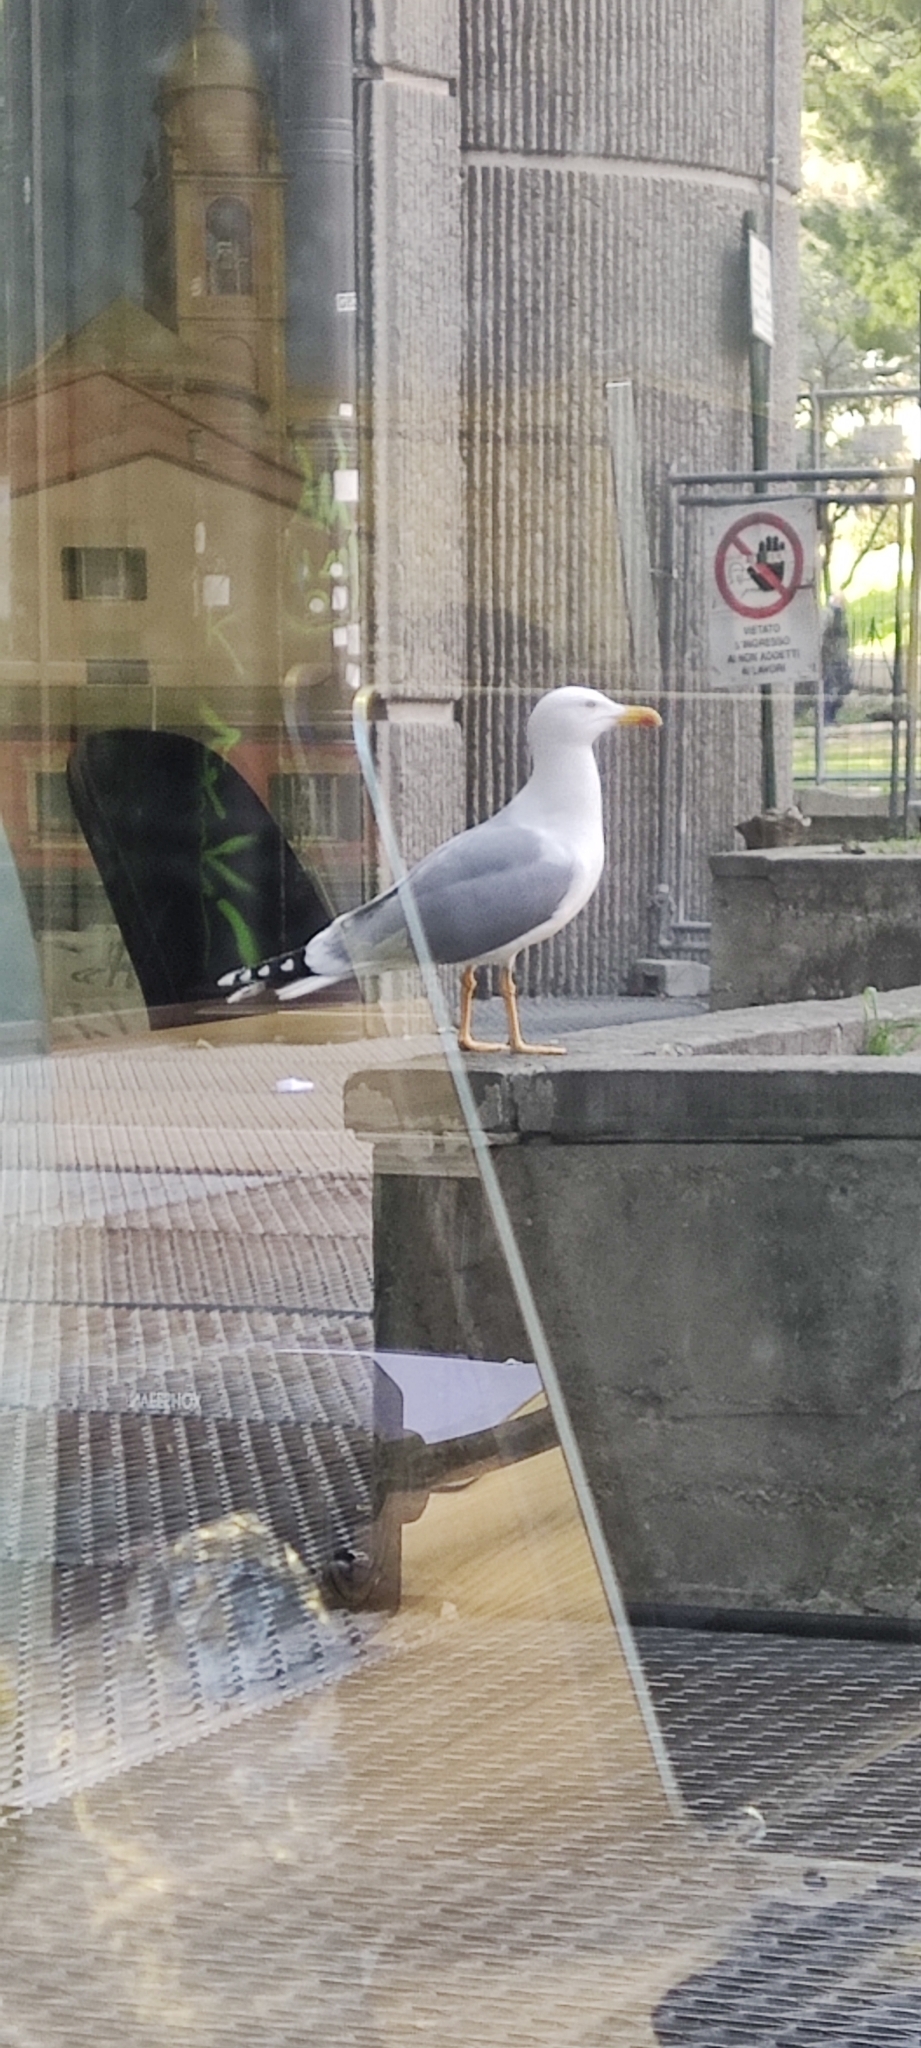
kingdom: Animalia
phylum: Chordata
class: Aves
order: Charadriiformes
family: Laridae
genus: Larus
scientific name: Larus michahellis
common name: Yellow-legged gull
